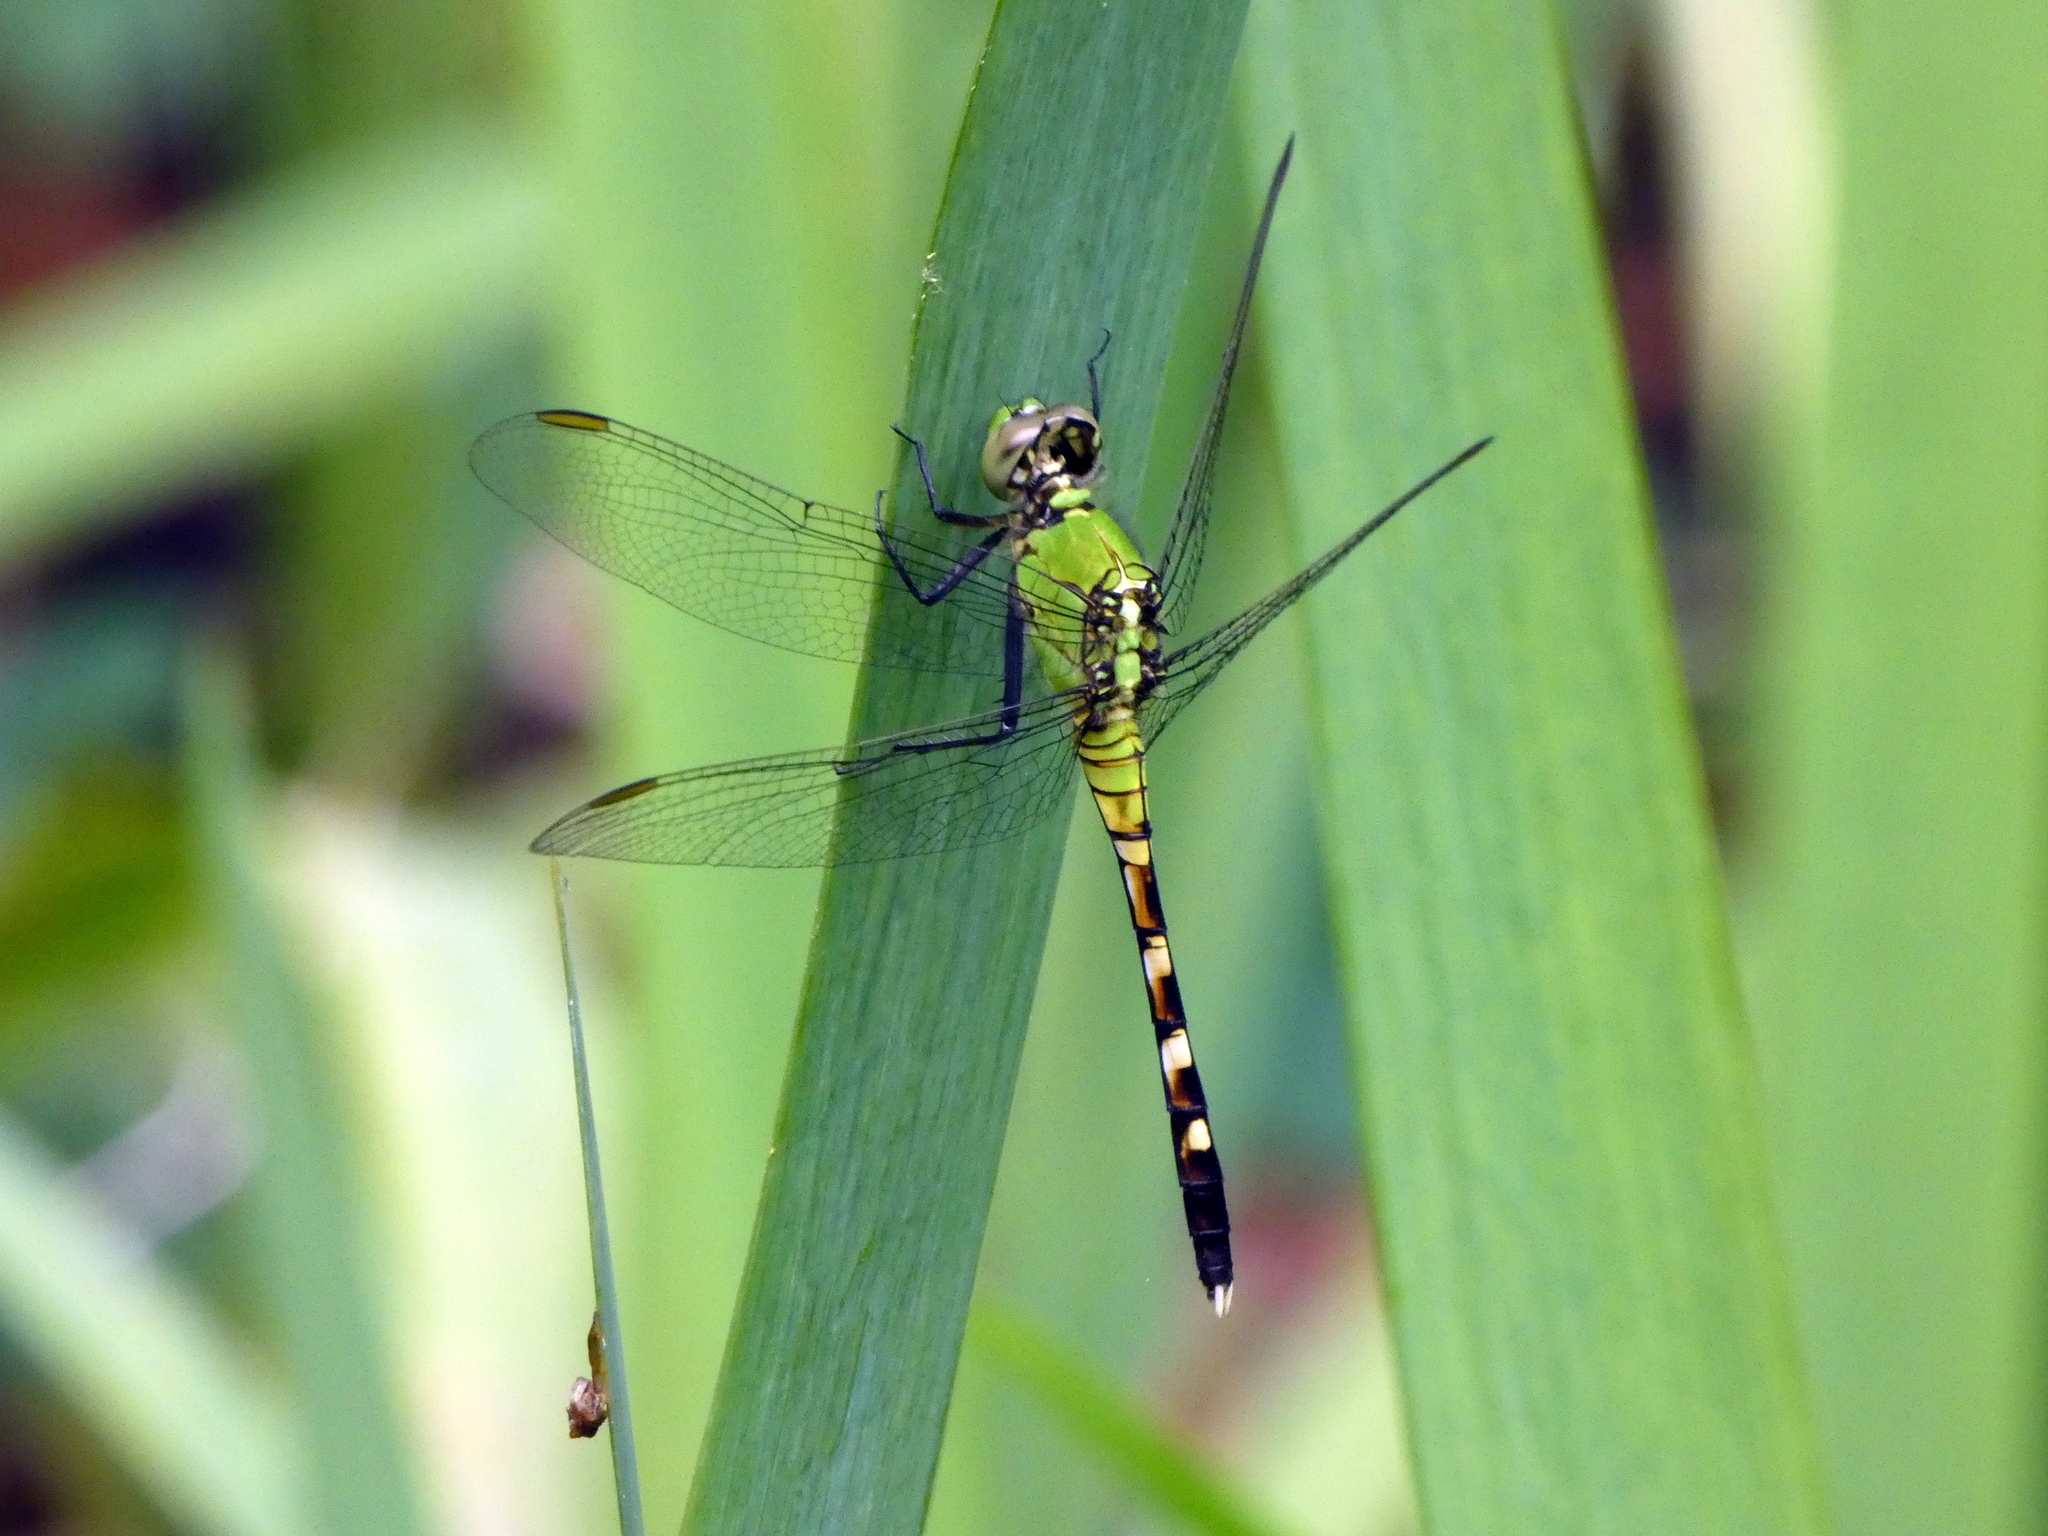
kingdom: Animalia
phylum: Arthropoda
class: Insecta
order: Odonata
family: Libellulidae
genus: Erythemis
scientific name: Erythemis simplicicollis
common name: Eastern pondhawk
